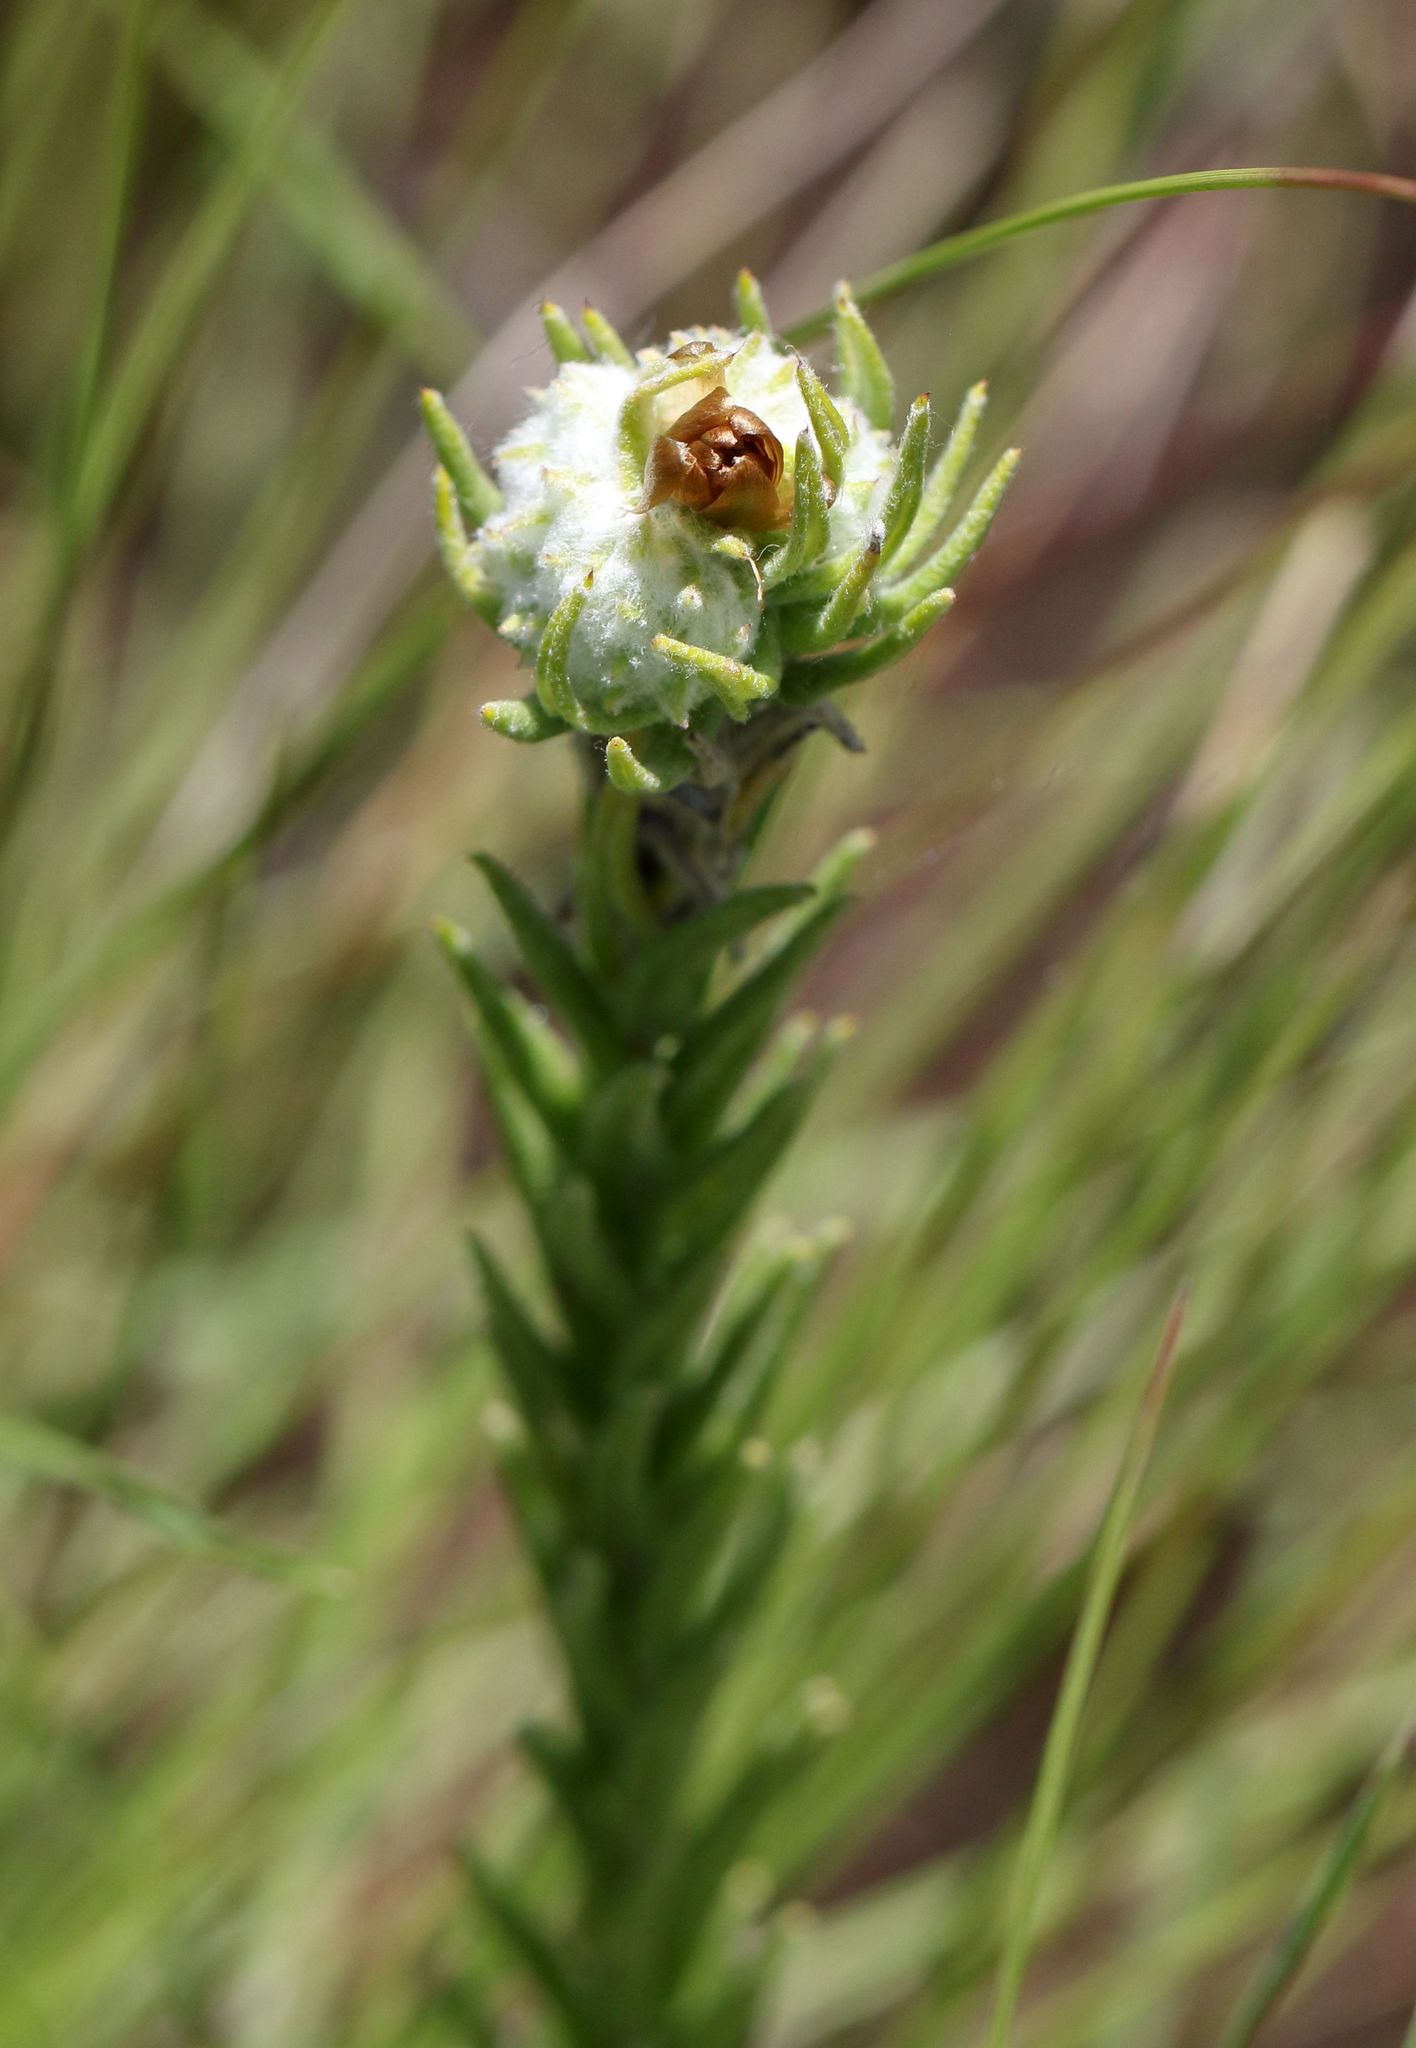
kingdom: Plantae
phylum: Tracheophyta
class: Magnoliopsida
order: Asterales
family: Asteraceae
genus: Helichrysum
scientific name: Helichrysum herbaceum
